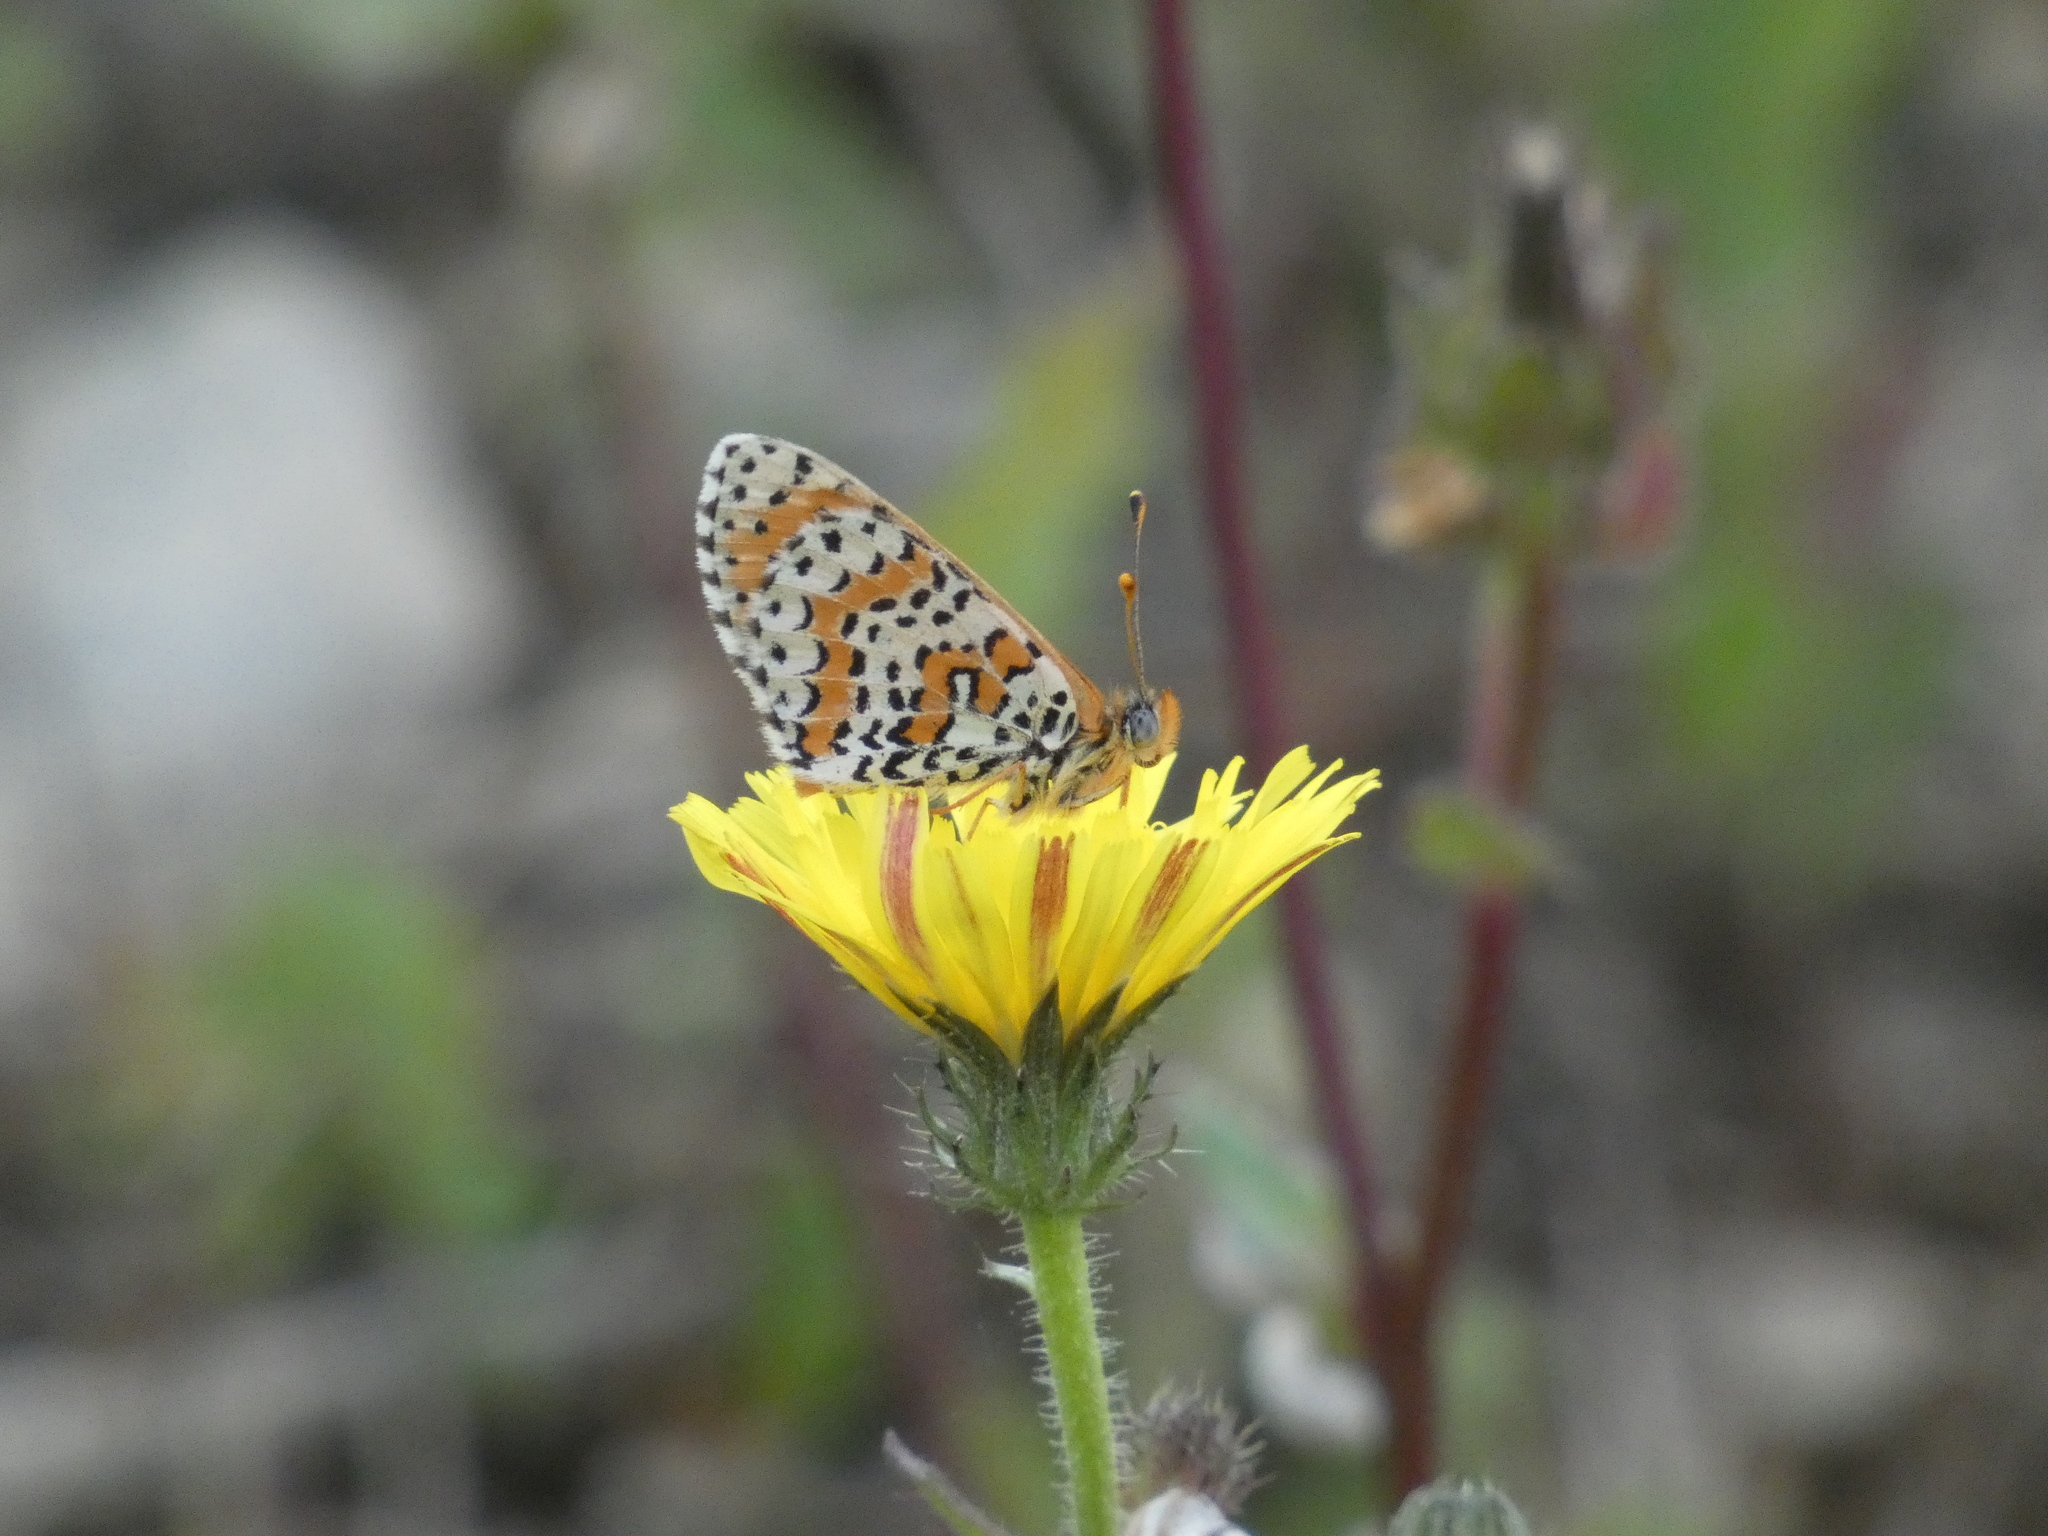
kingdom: Animalia
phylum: Arthropoda
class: Insecta
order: Lepidoptera
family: Nymphalidae
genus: Melitaea
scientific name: Melitaea didyma
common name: Spotted fritillary
